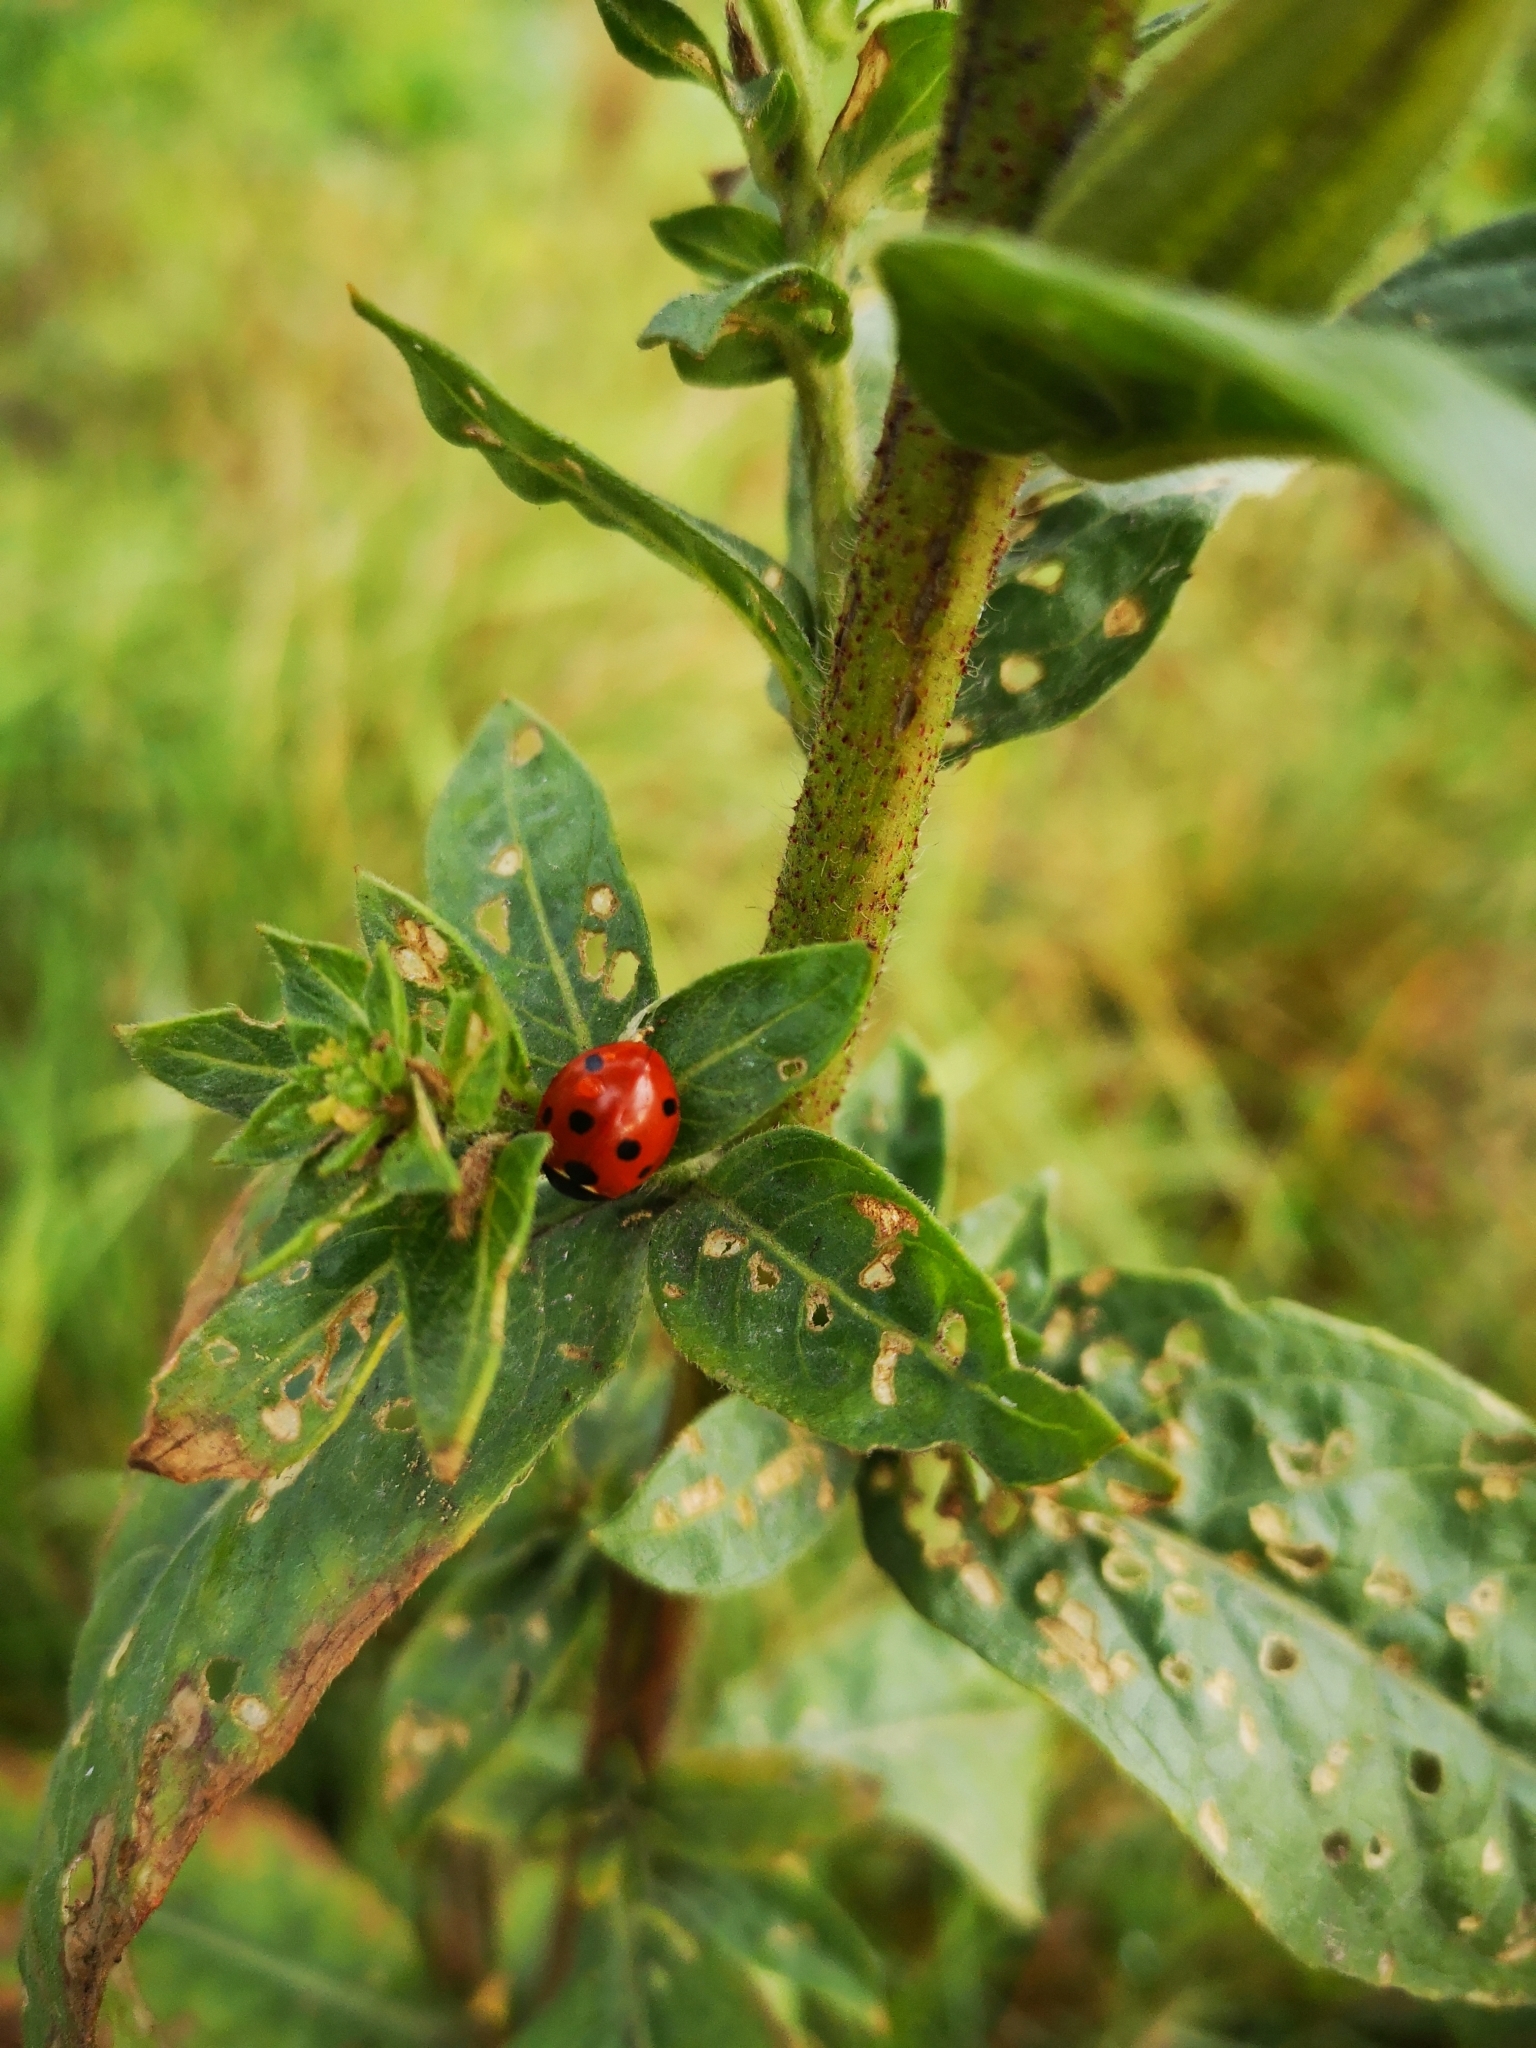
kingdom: Animalia
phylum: Arthropoda
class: Insecta
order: Coleoptera
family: Coccinellidae
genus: Coccinella
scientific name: Coccinella septempunctata
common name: Sevenspotted lady beetle
